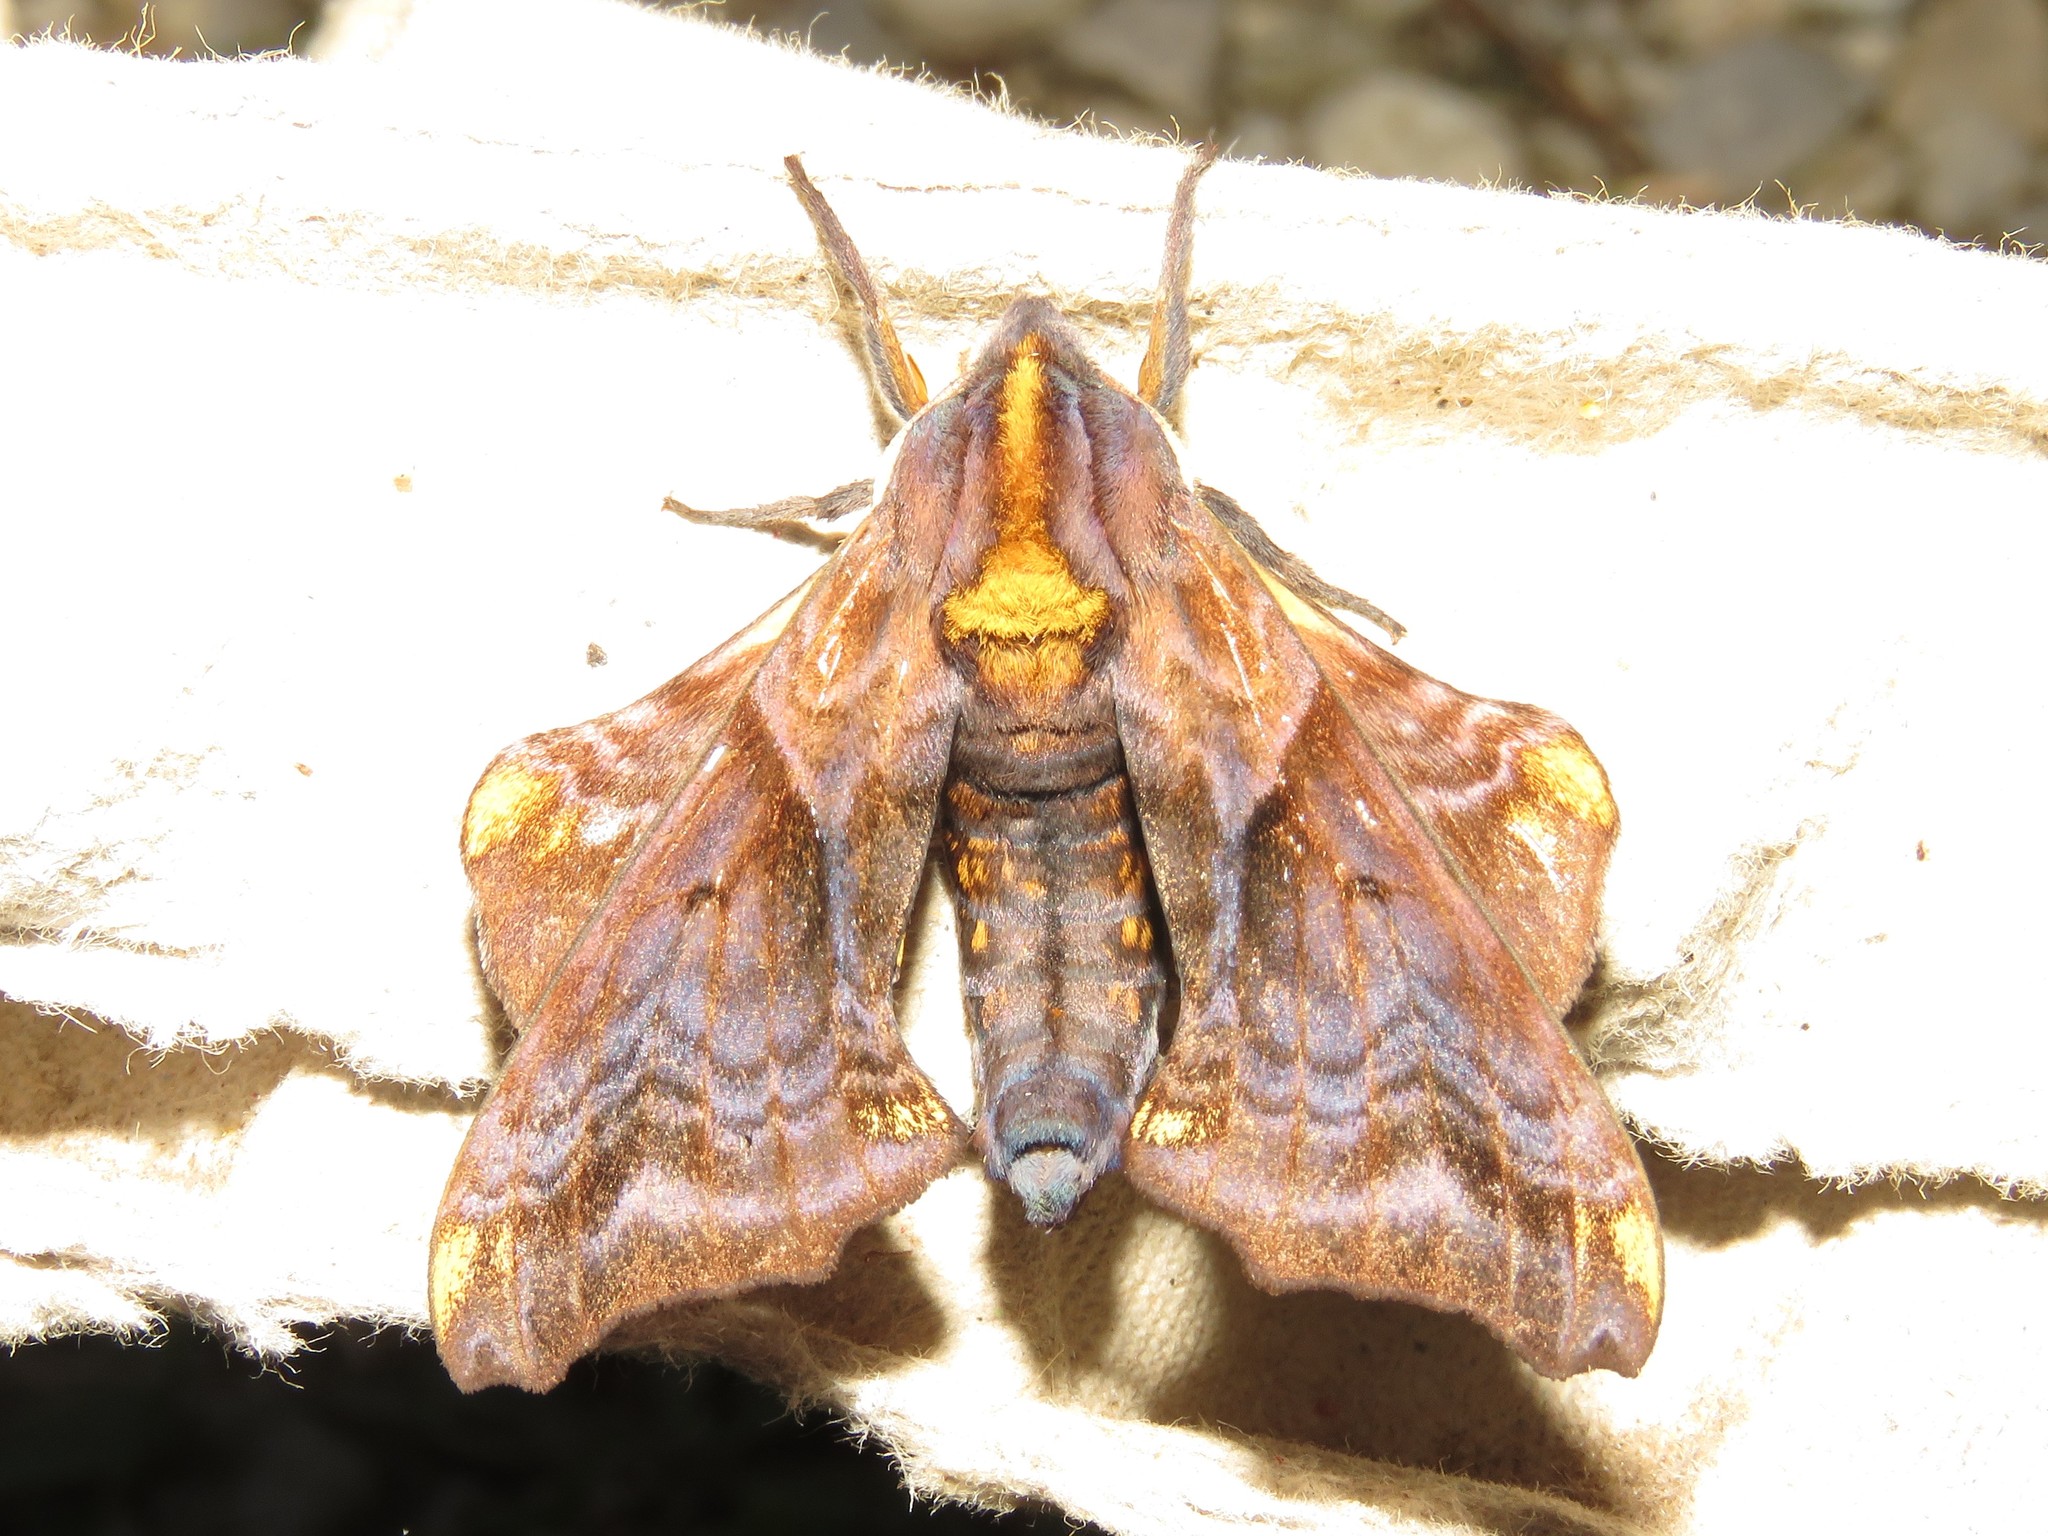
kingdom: Animalia
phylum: Arthropoda
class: Insecta
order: Lepidoptera
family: Sphingidae
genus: Paonias
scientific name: Paonias myops
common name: Small-eyed sphinx
